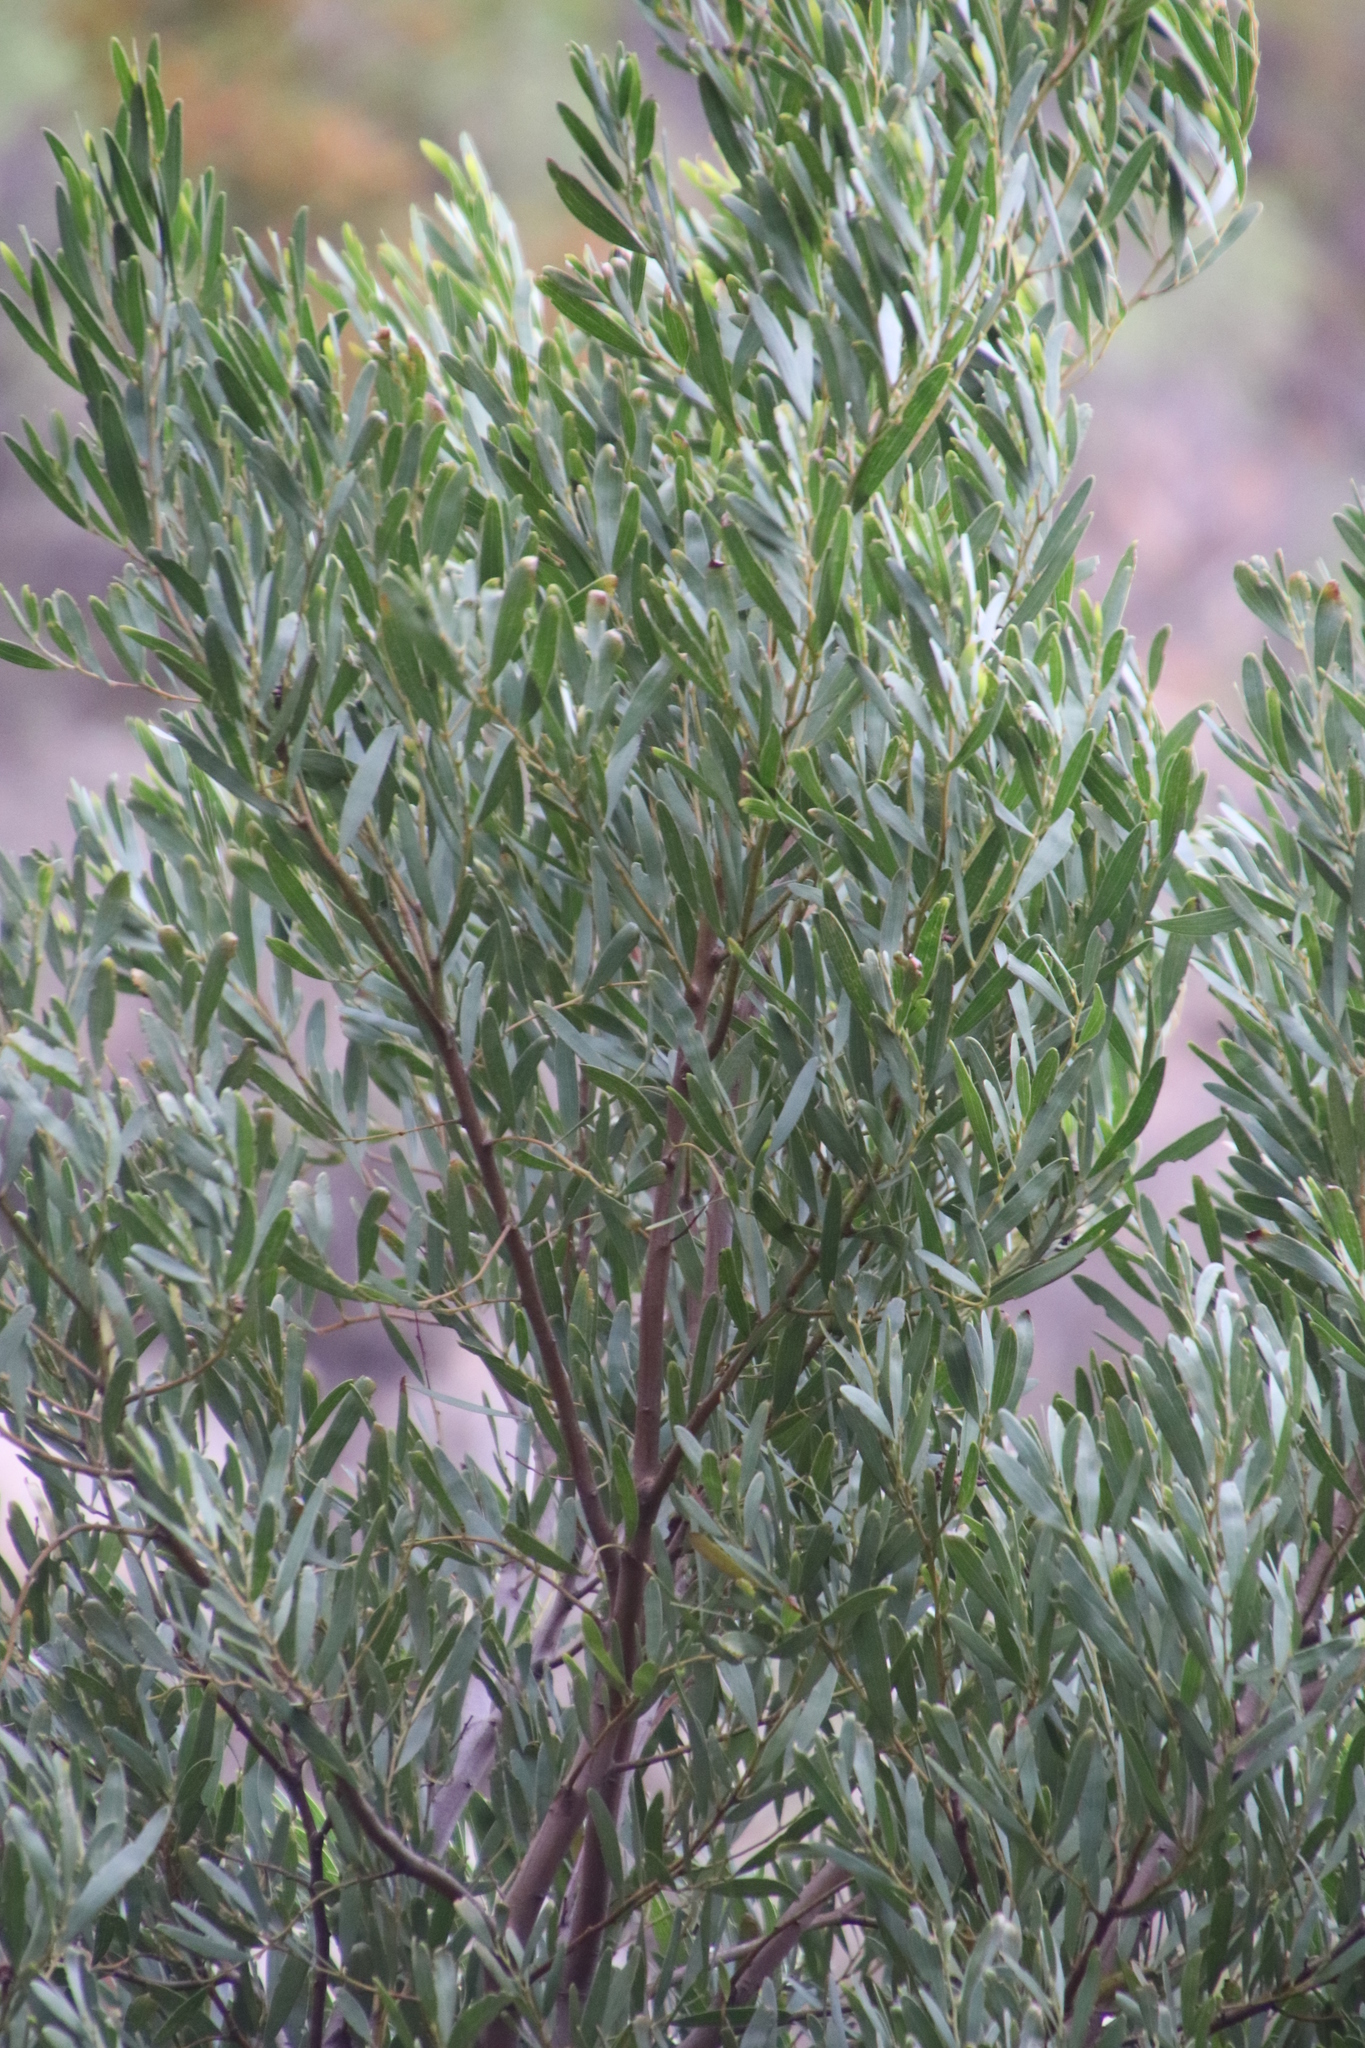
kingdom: Plantae
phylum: Tracheophyta
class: Magnoliopsida
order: Fabales
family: Fabaceae
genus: Acacia
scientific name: Acacia cyclops
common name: Coastal wattle
